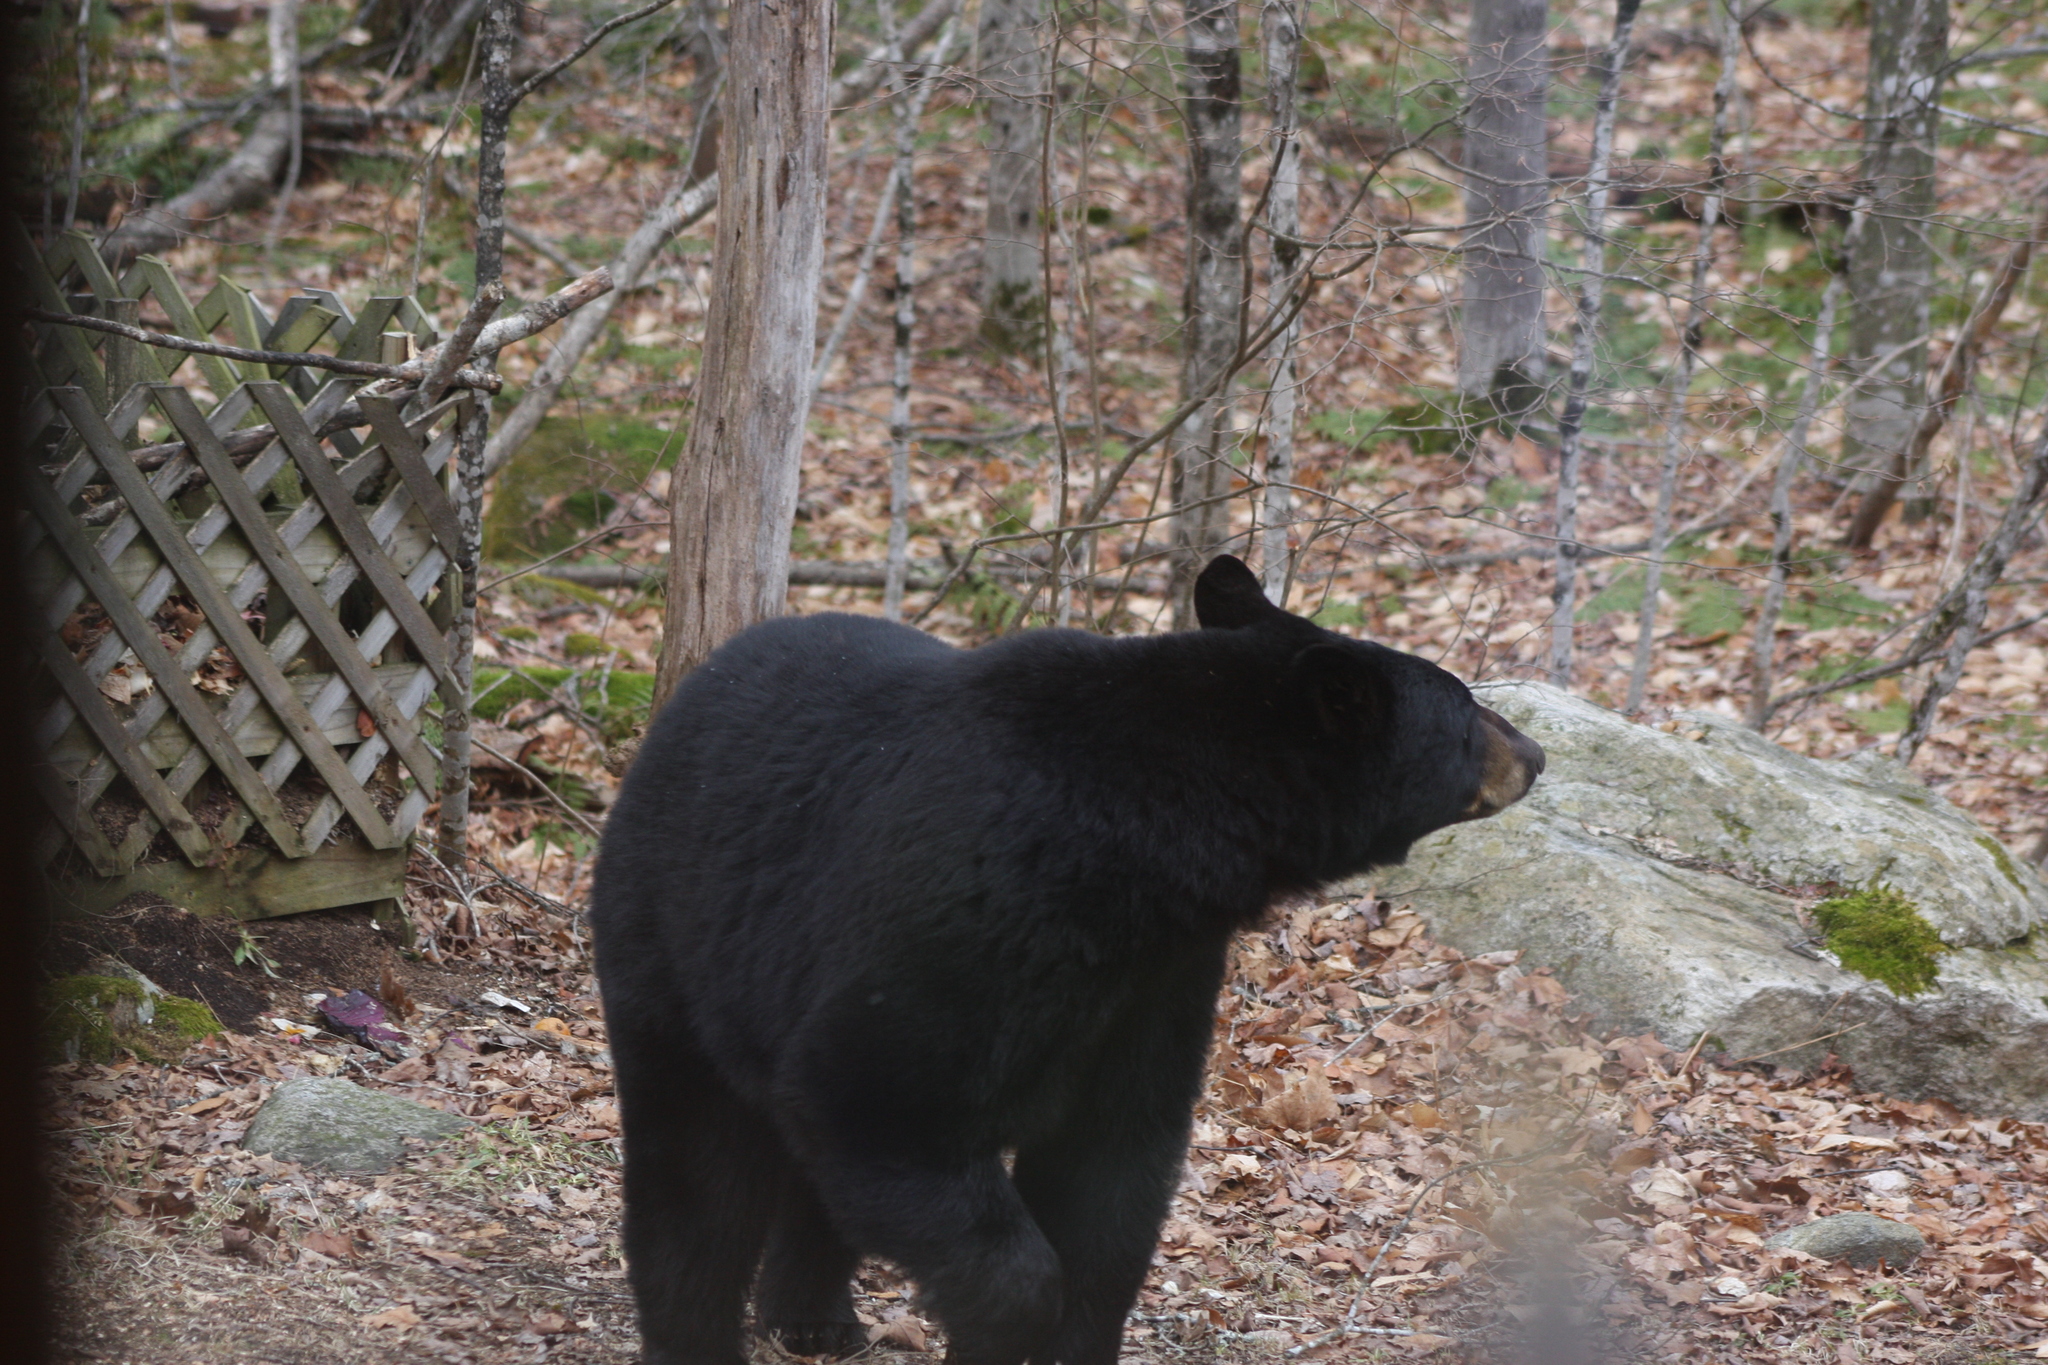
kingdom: Animalia
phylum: Chordata
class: Mammalia
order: Carnivora
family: Ursidae
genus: Ursus
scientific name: Ursus americanus
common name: American black bear
